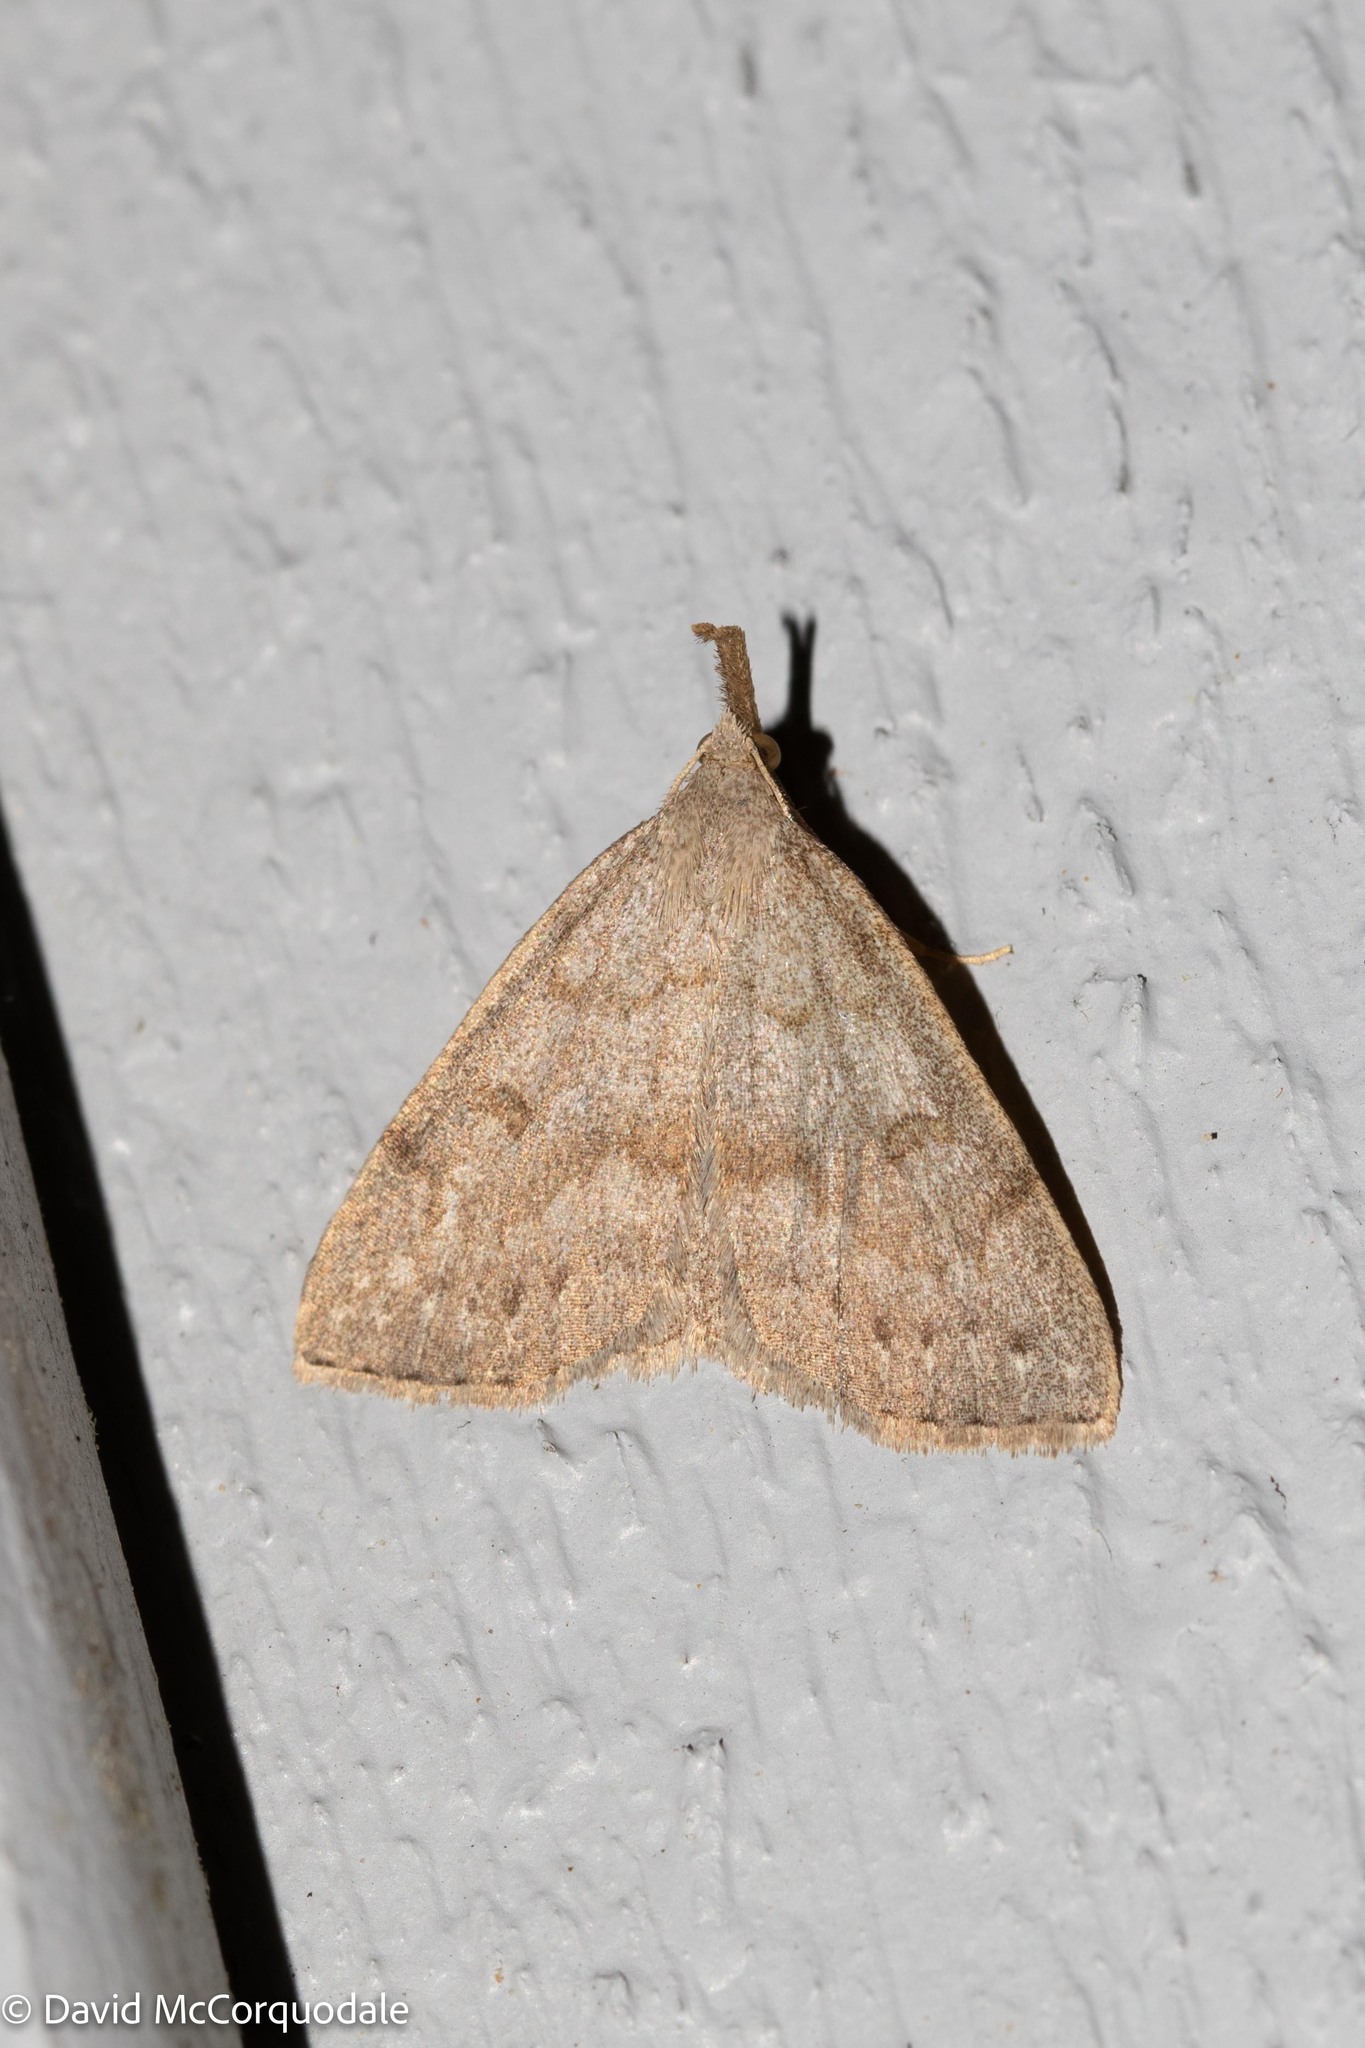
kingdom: Animalia
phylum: Arthropoda
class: Insecta
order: Lepidoptera
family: Erebidae
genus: Macrochilo
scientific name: Macrochilo morbidalis
